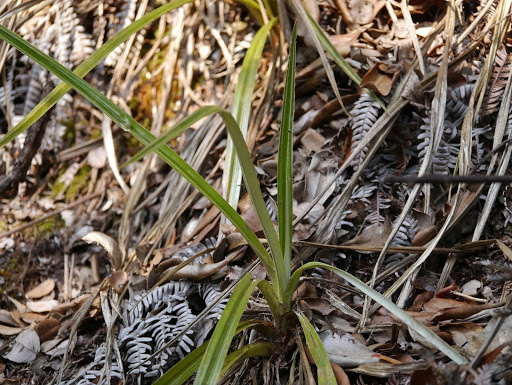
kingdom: Plantae
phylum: Tracheophyta
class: Liliopsida
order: Asparagales
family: Asteliaceae
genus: Astelia
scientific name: Astelia menziesiana
